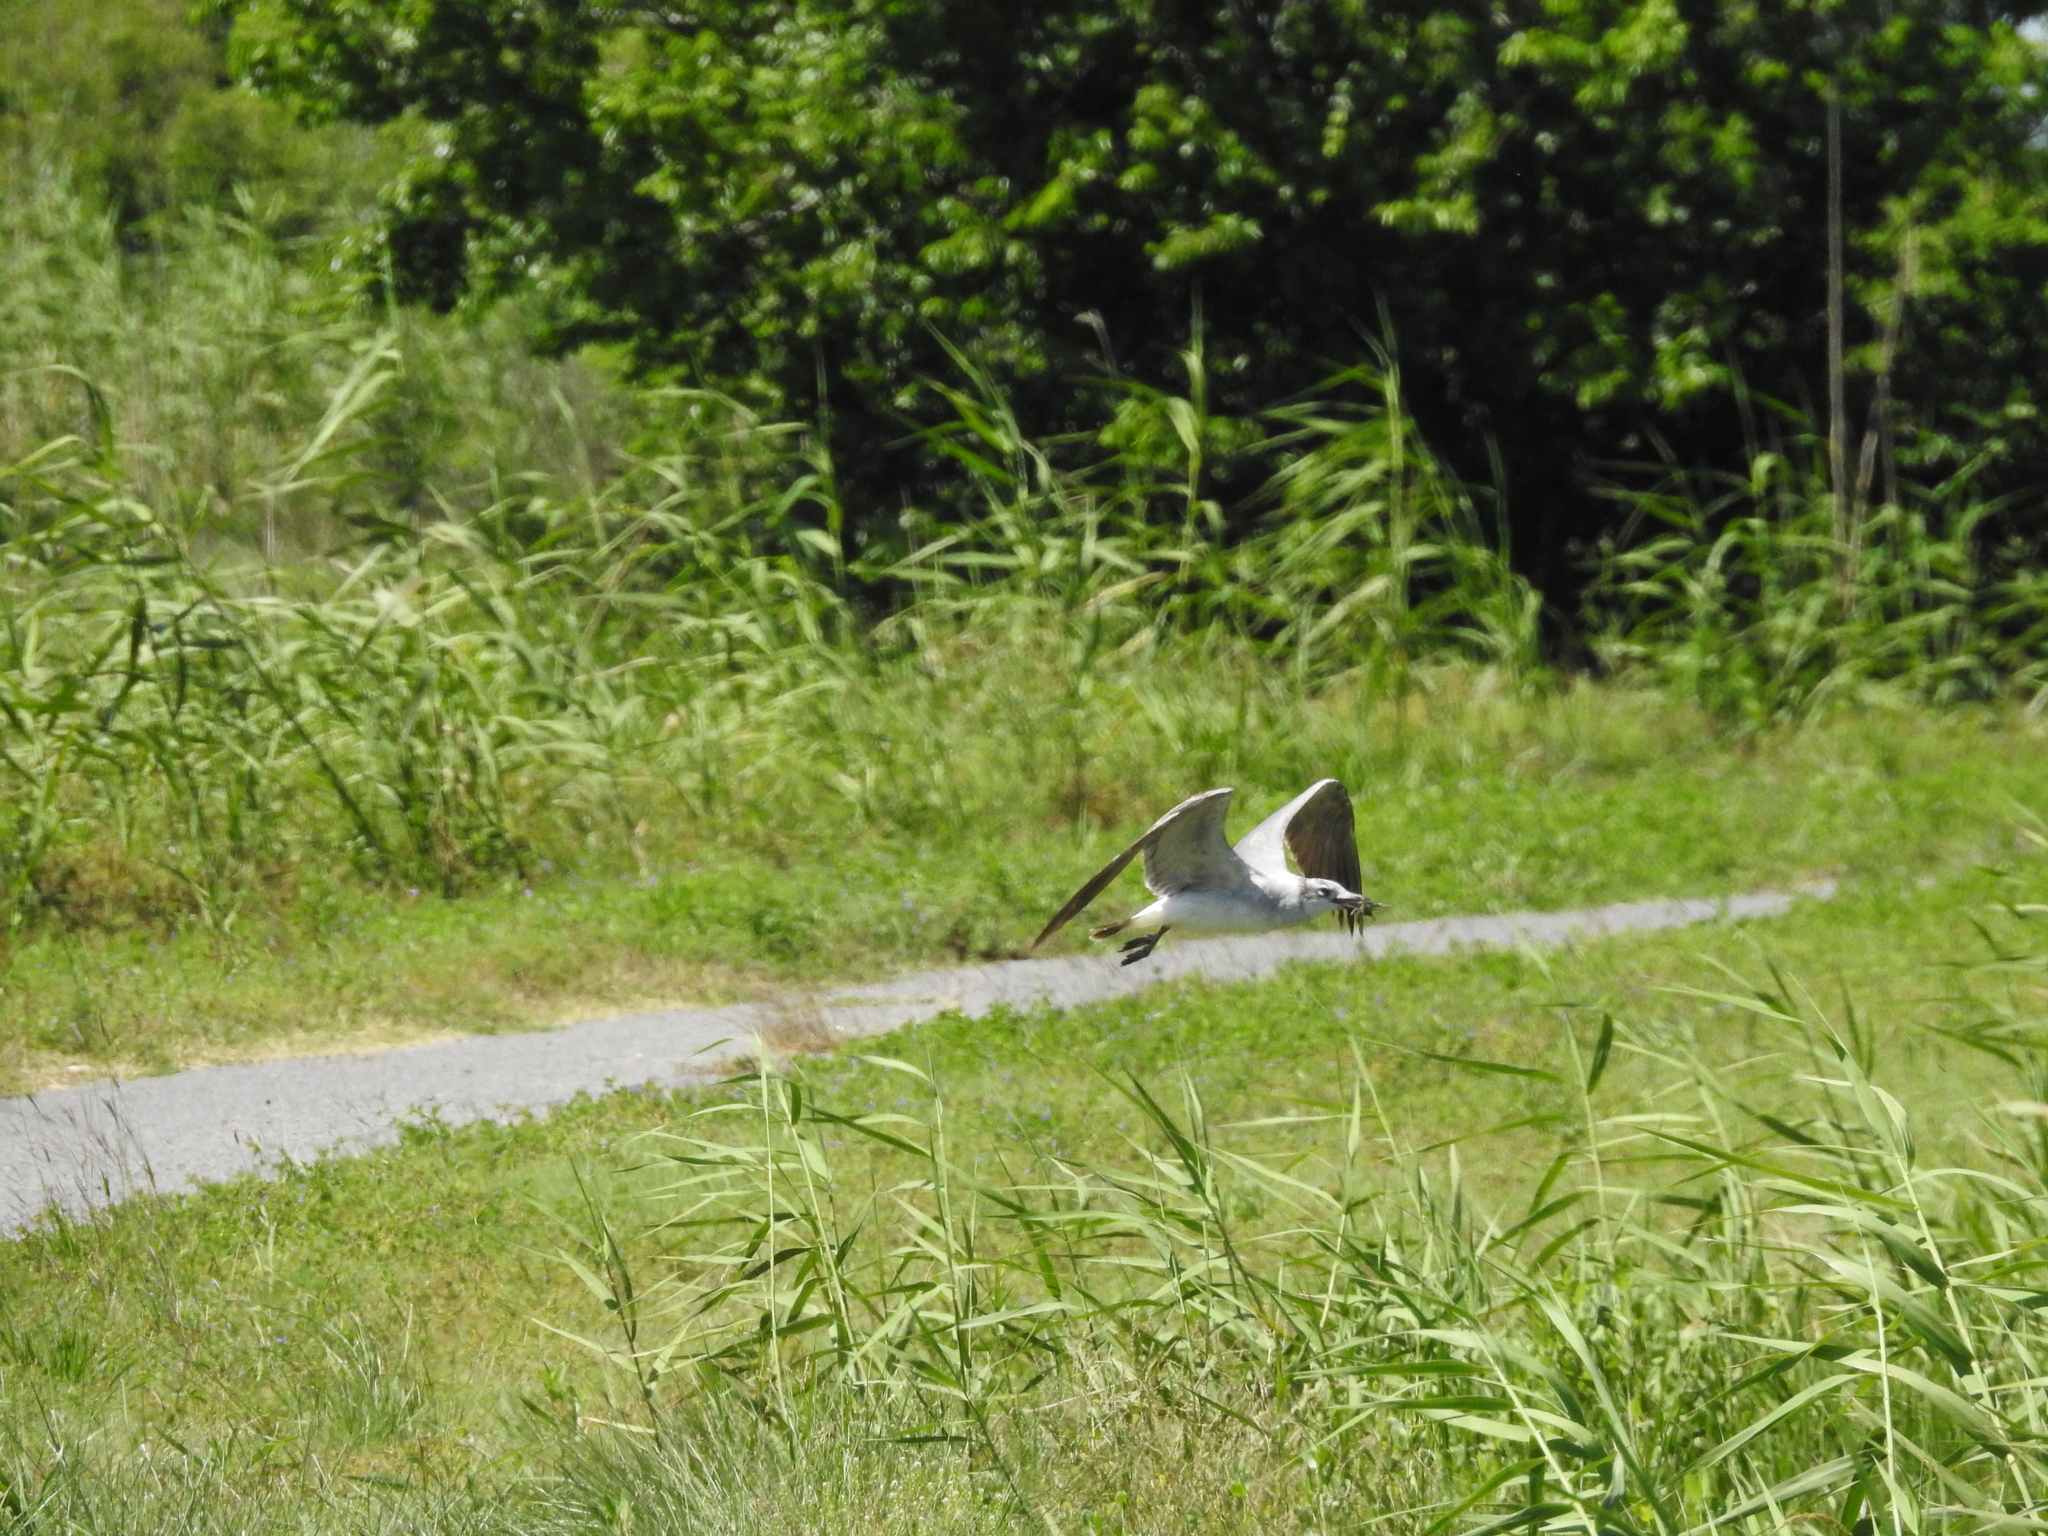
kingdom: Animalia
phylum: Chordata
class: Aves
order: Charadriiformes
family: Laridae
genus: Leucophaeus
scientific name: Leucophaeus atricilla
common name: Laughing gull
